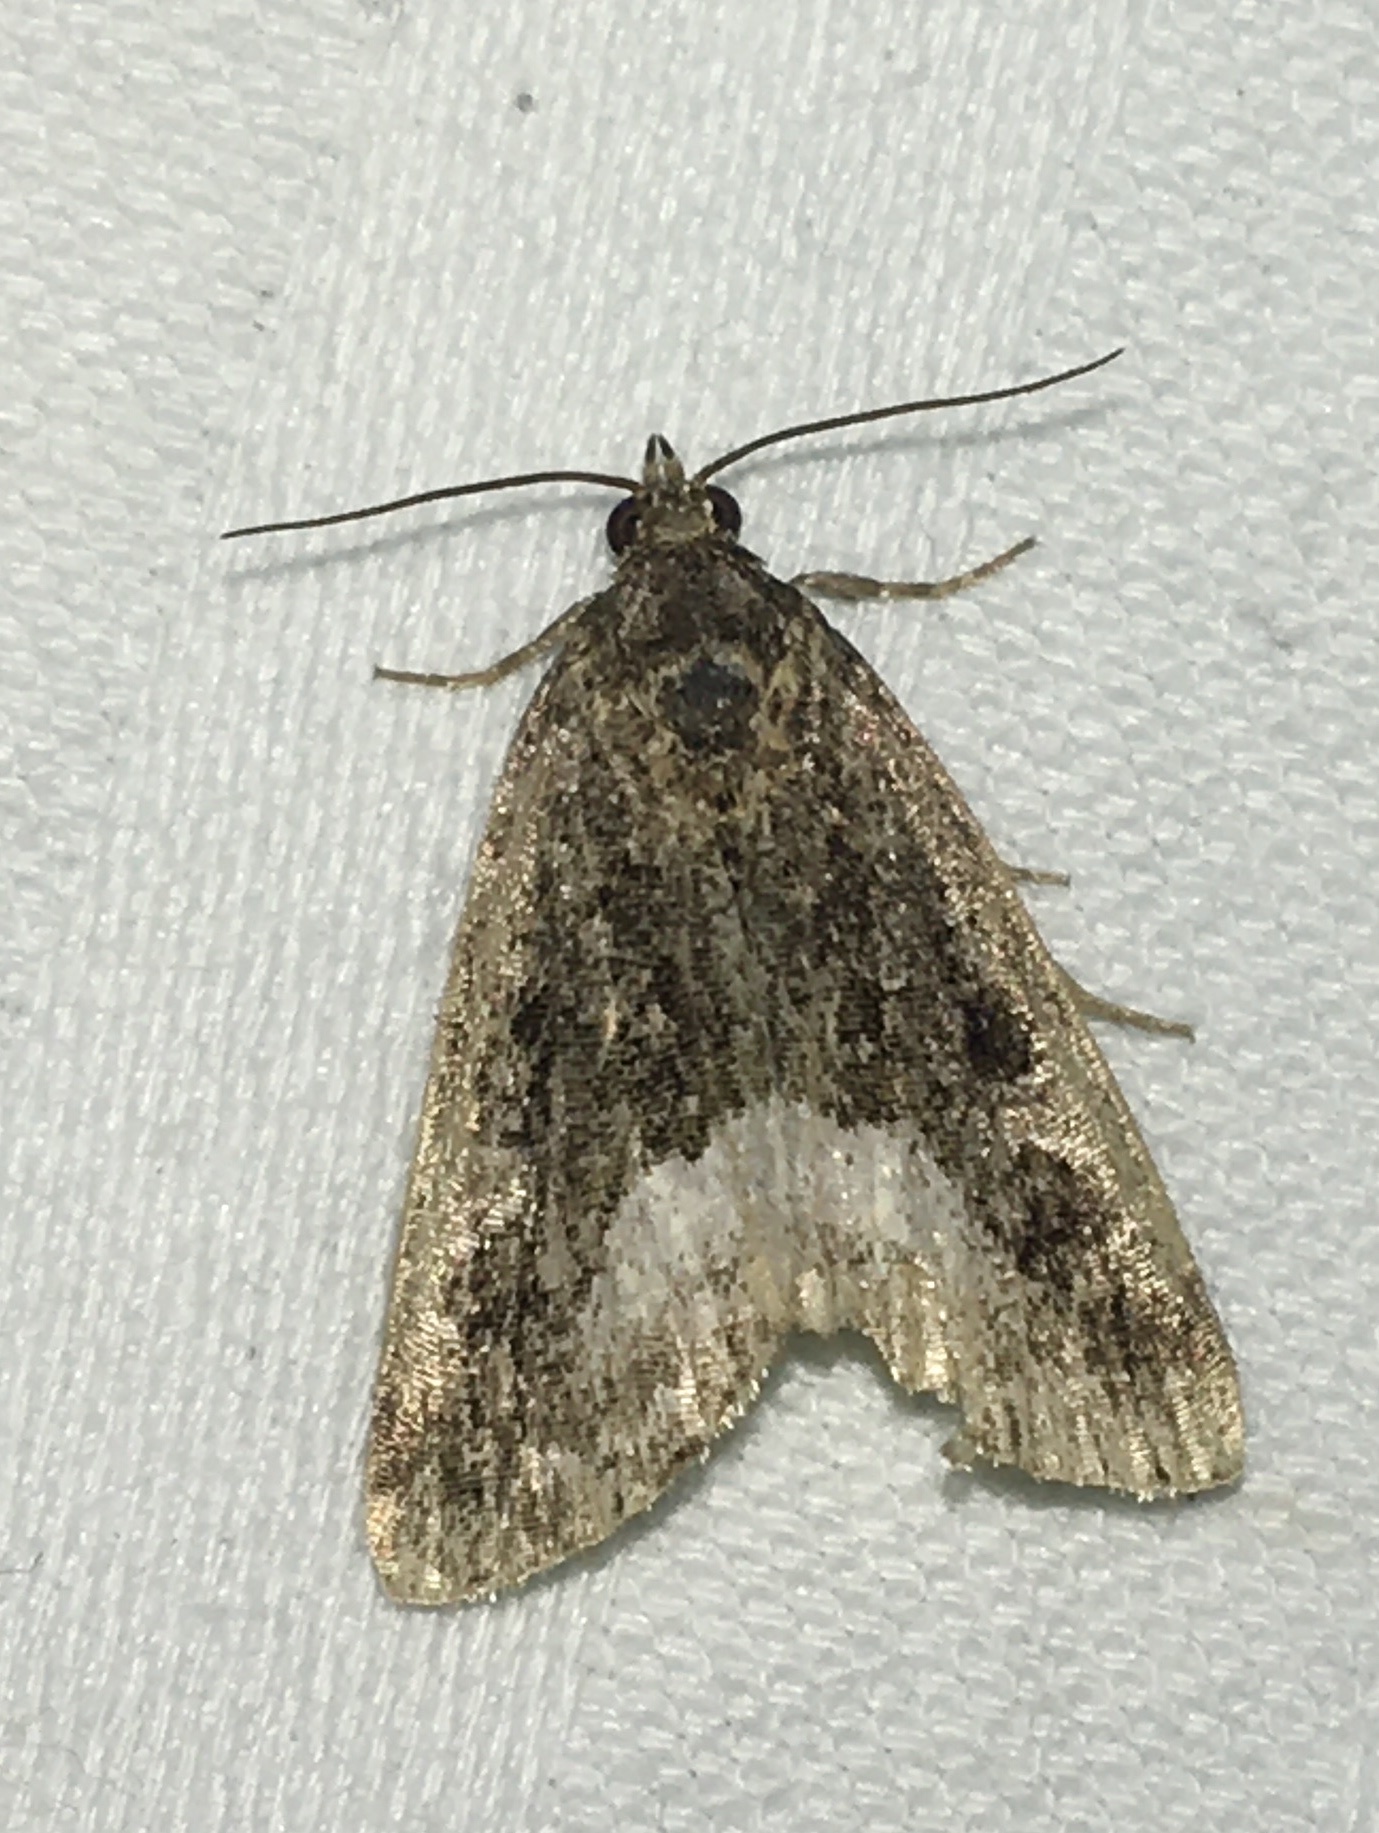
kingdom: Animalia
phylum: Arthropoda
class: Insecta
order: Lepidoptera
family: Noctuidae
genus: Deltote
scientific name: Deltote pygarga
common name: Marbled white spot
